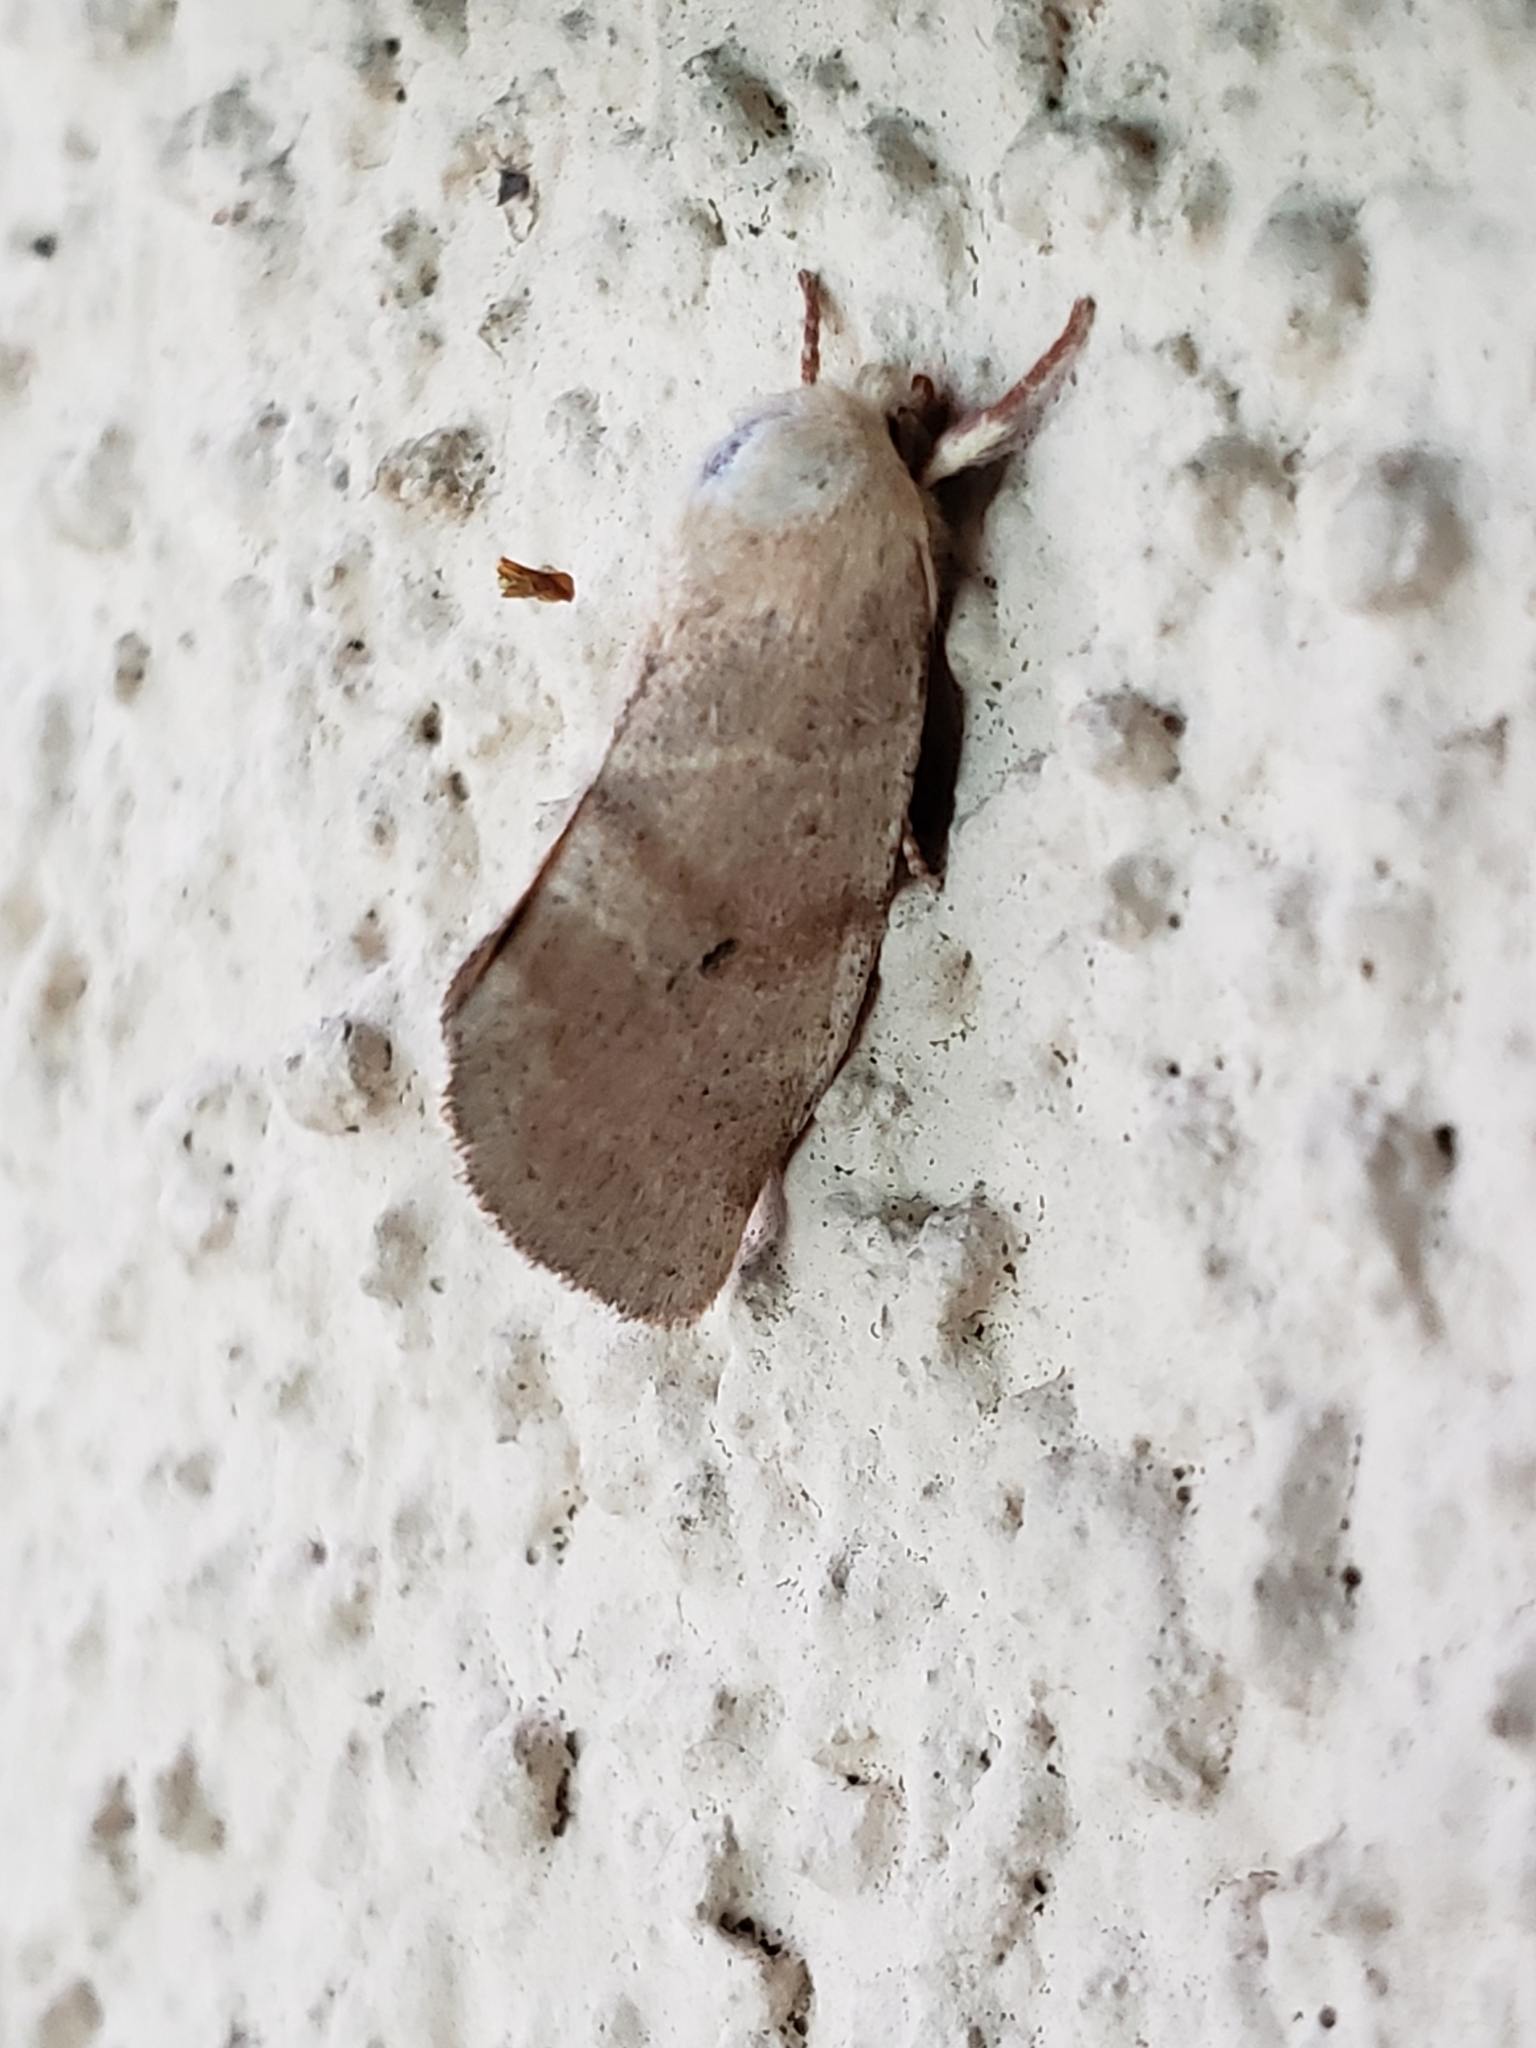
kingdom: Animalia
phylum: Arthropoda
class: Insecta
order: Lepidoptera
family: Noctuidae
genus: Cosmia
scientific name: Cosmia calami
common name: American dun-bar moth
